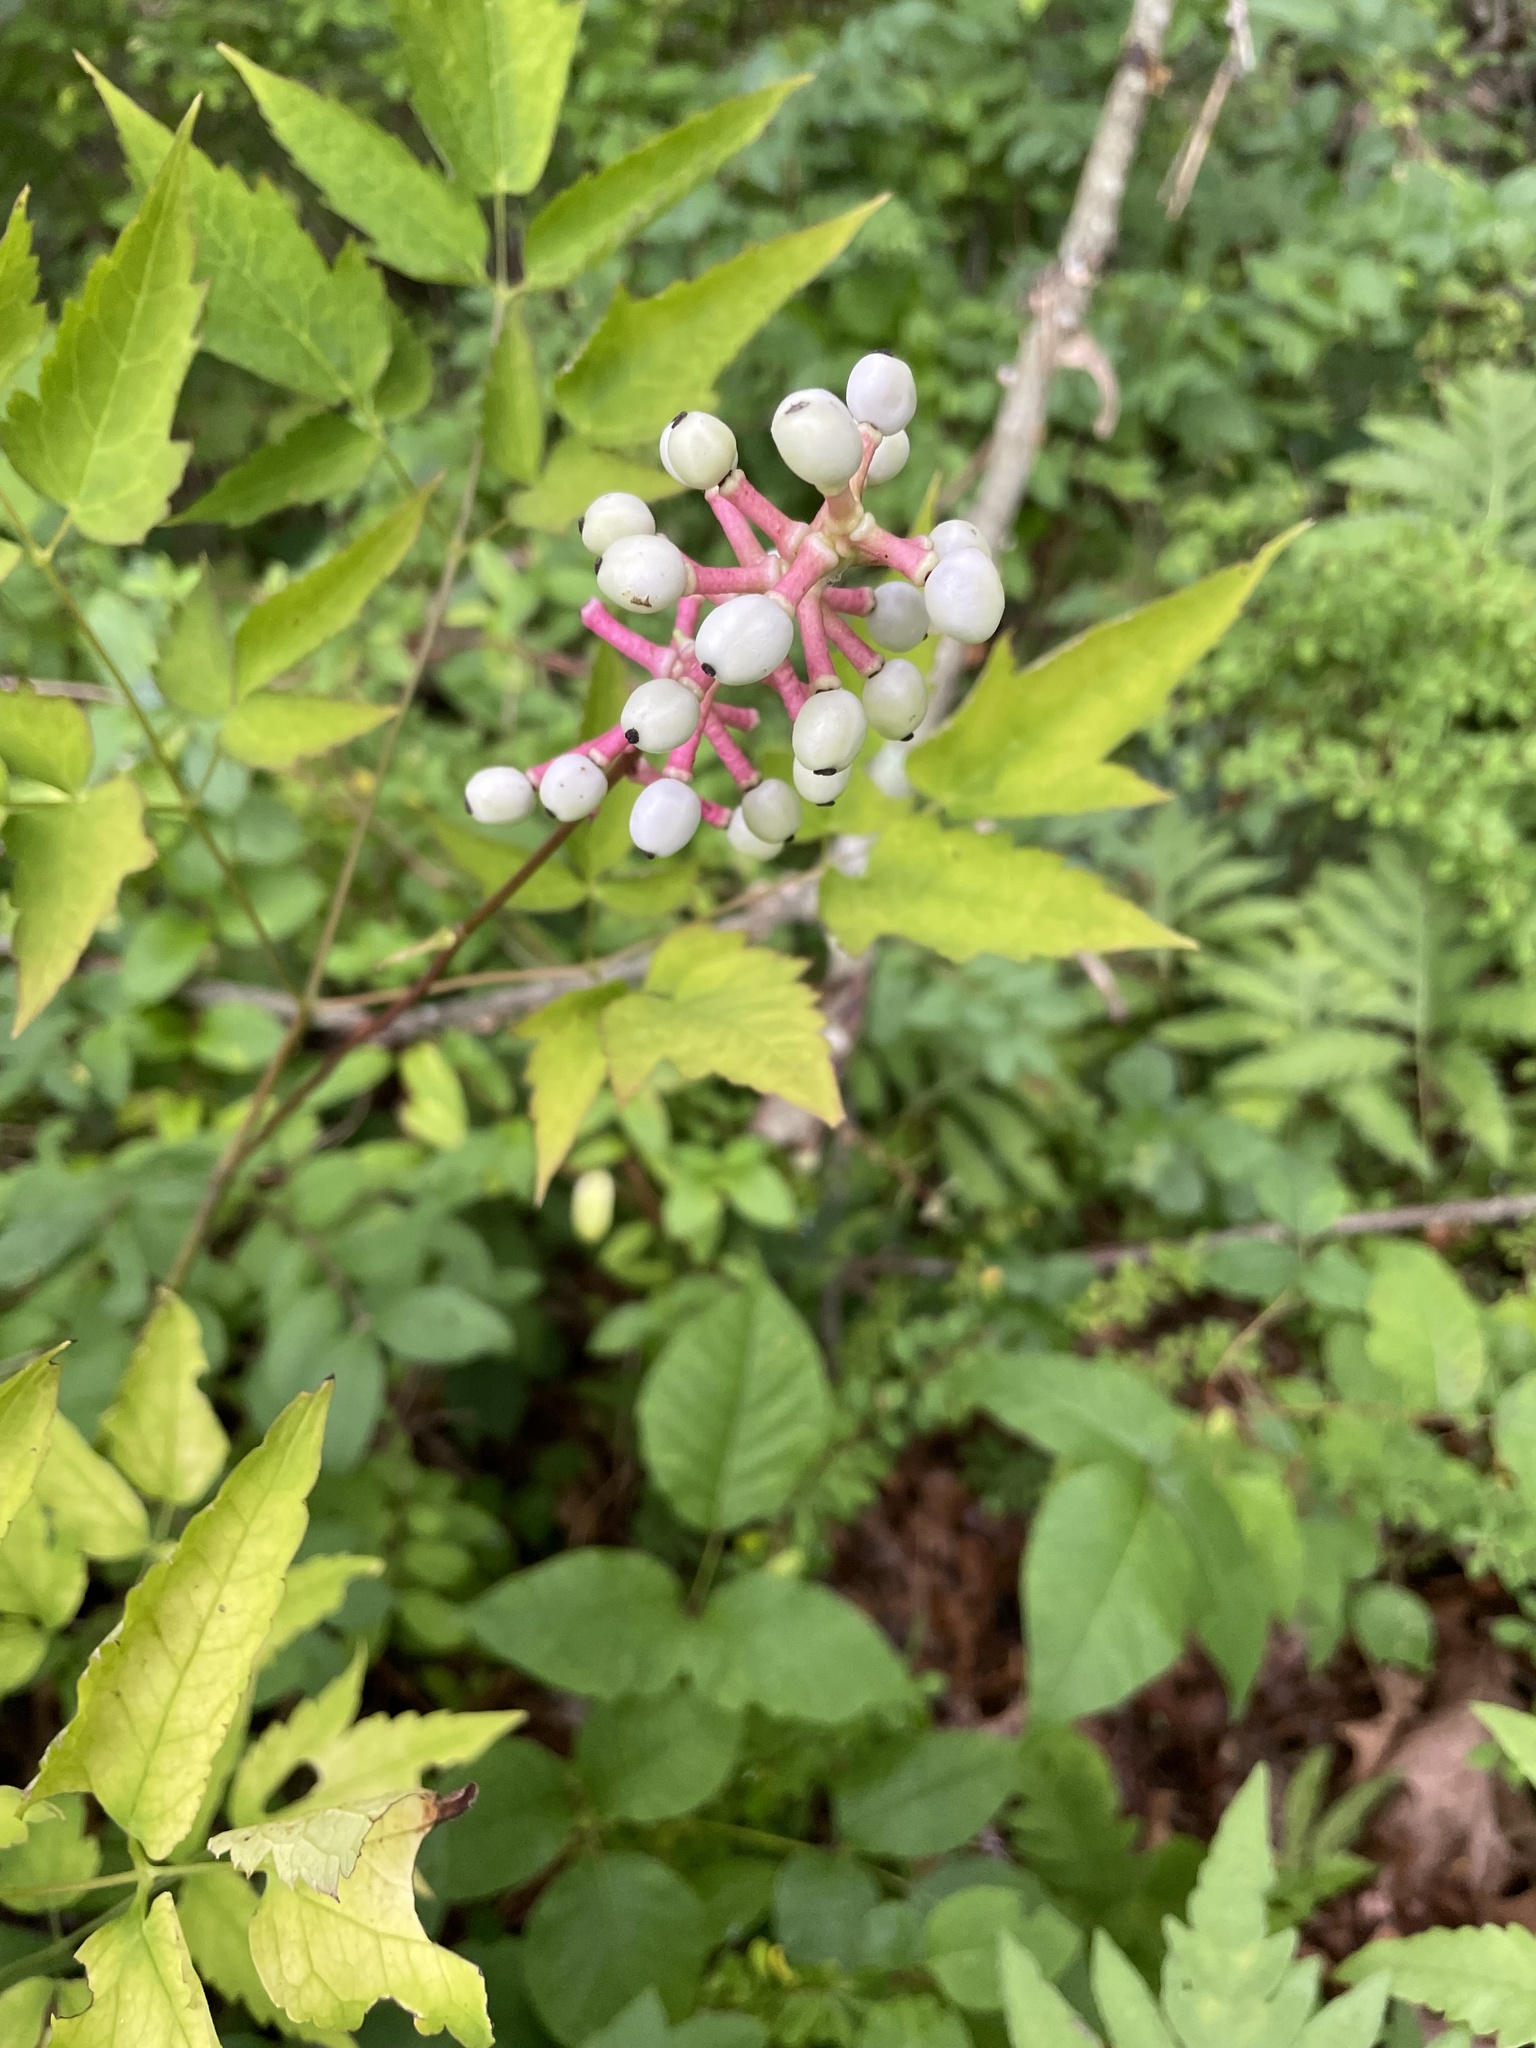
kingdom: Plantae
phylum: Tracheophyta
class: Magnoliopsida
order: Ranunculales
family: Ranunculaceae
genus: Actaea
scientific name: Actaea pachypoda
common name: Doll's-eyes
